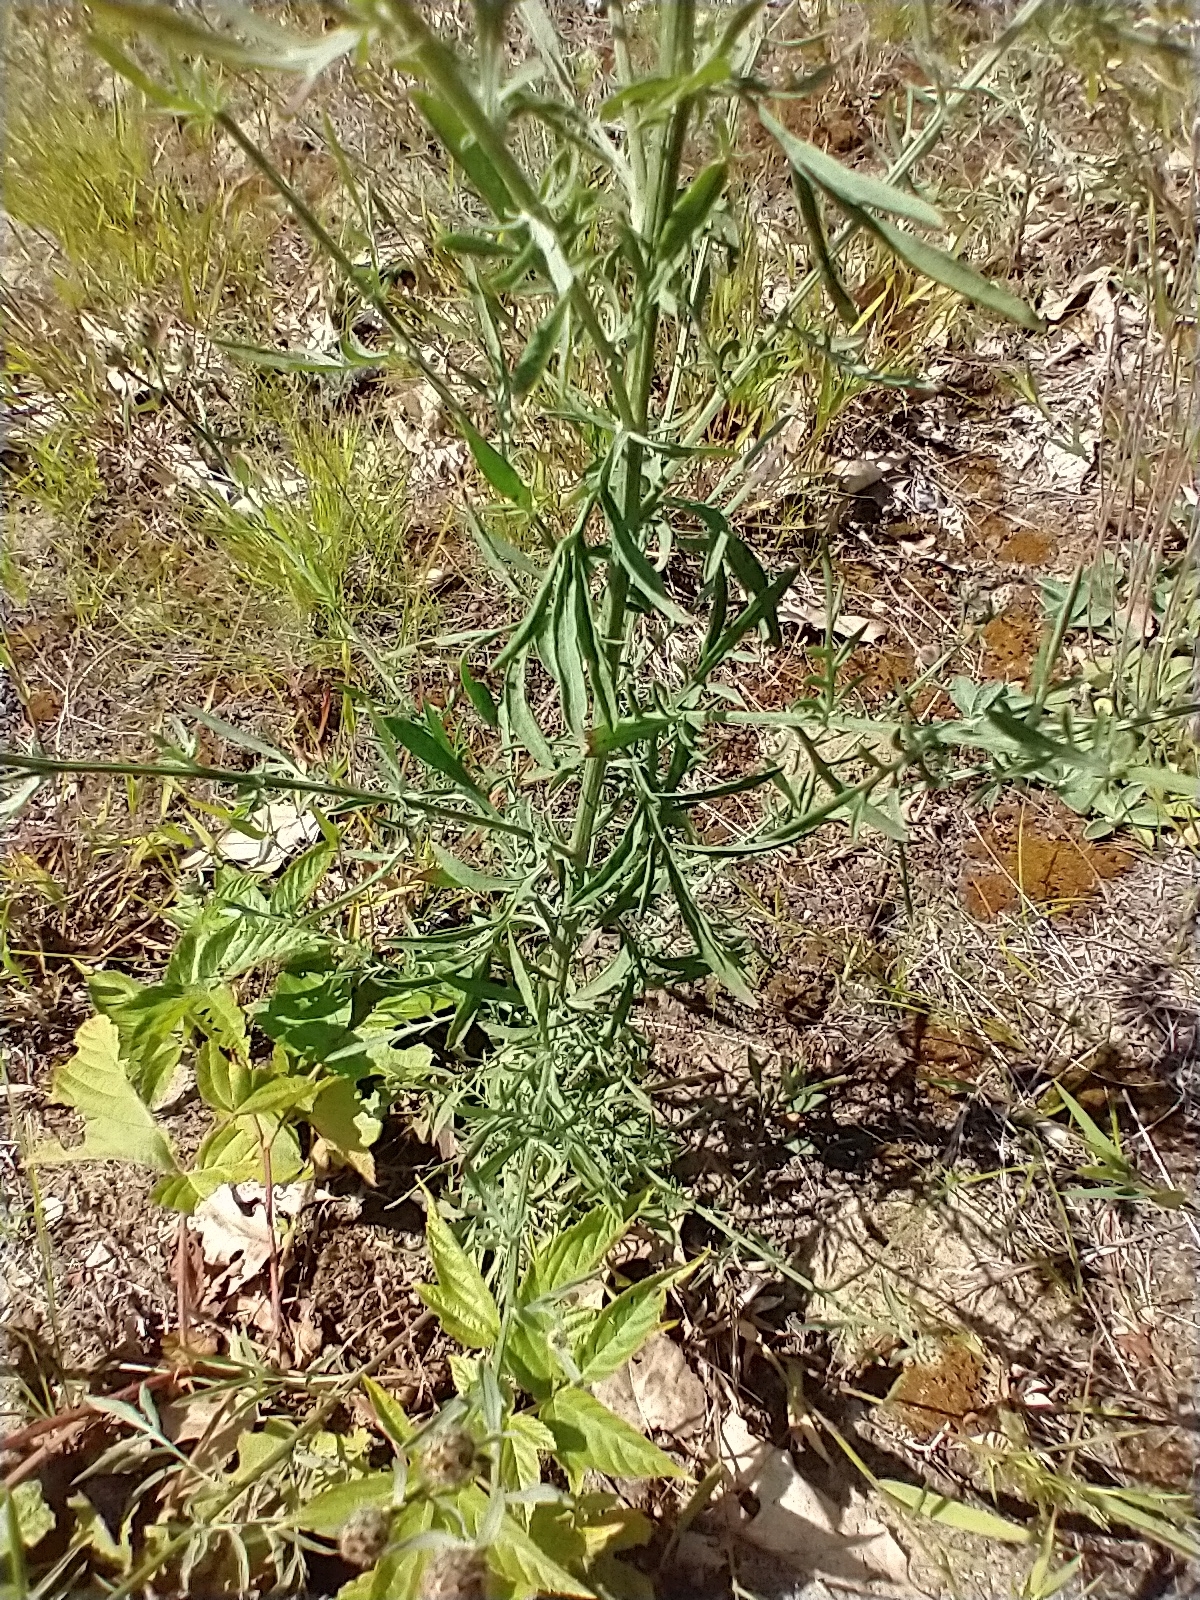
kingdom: Plantae
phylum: Tracheophyta
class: Magnoliopsida
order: Asterales
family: Asteraceae
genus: Centaurea
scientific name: Centaurea stoebe
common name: Spotted knapweed
